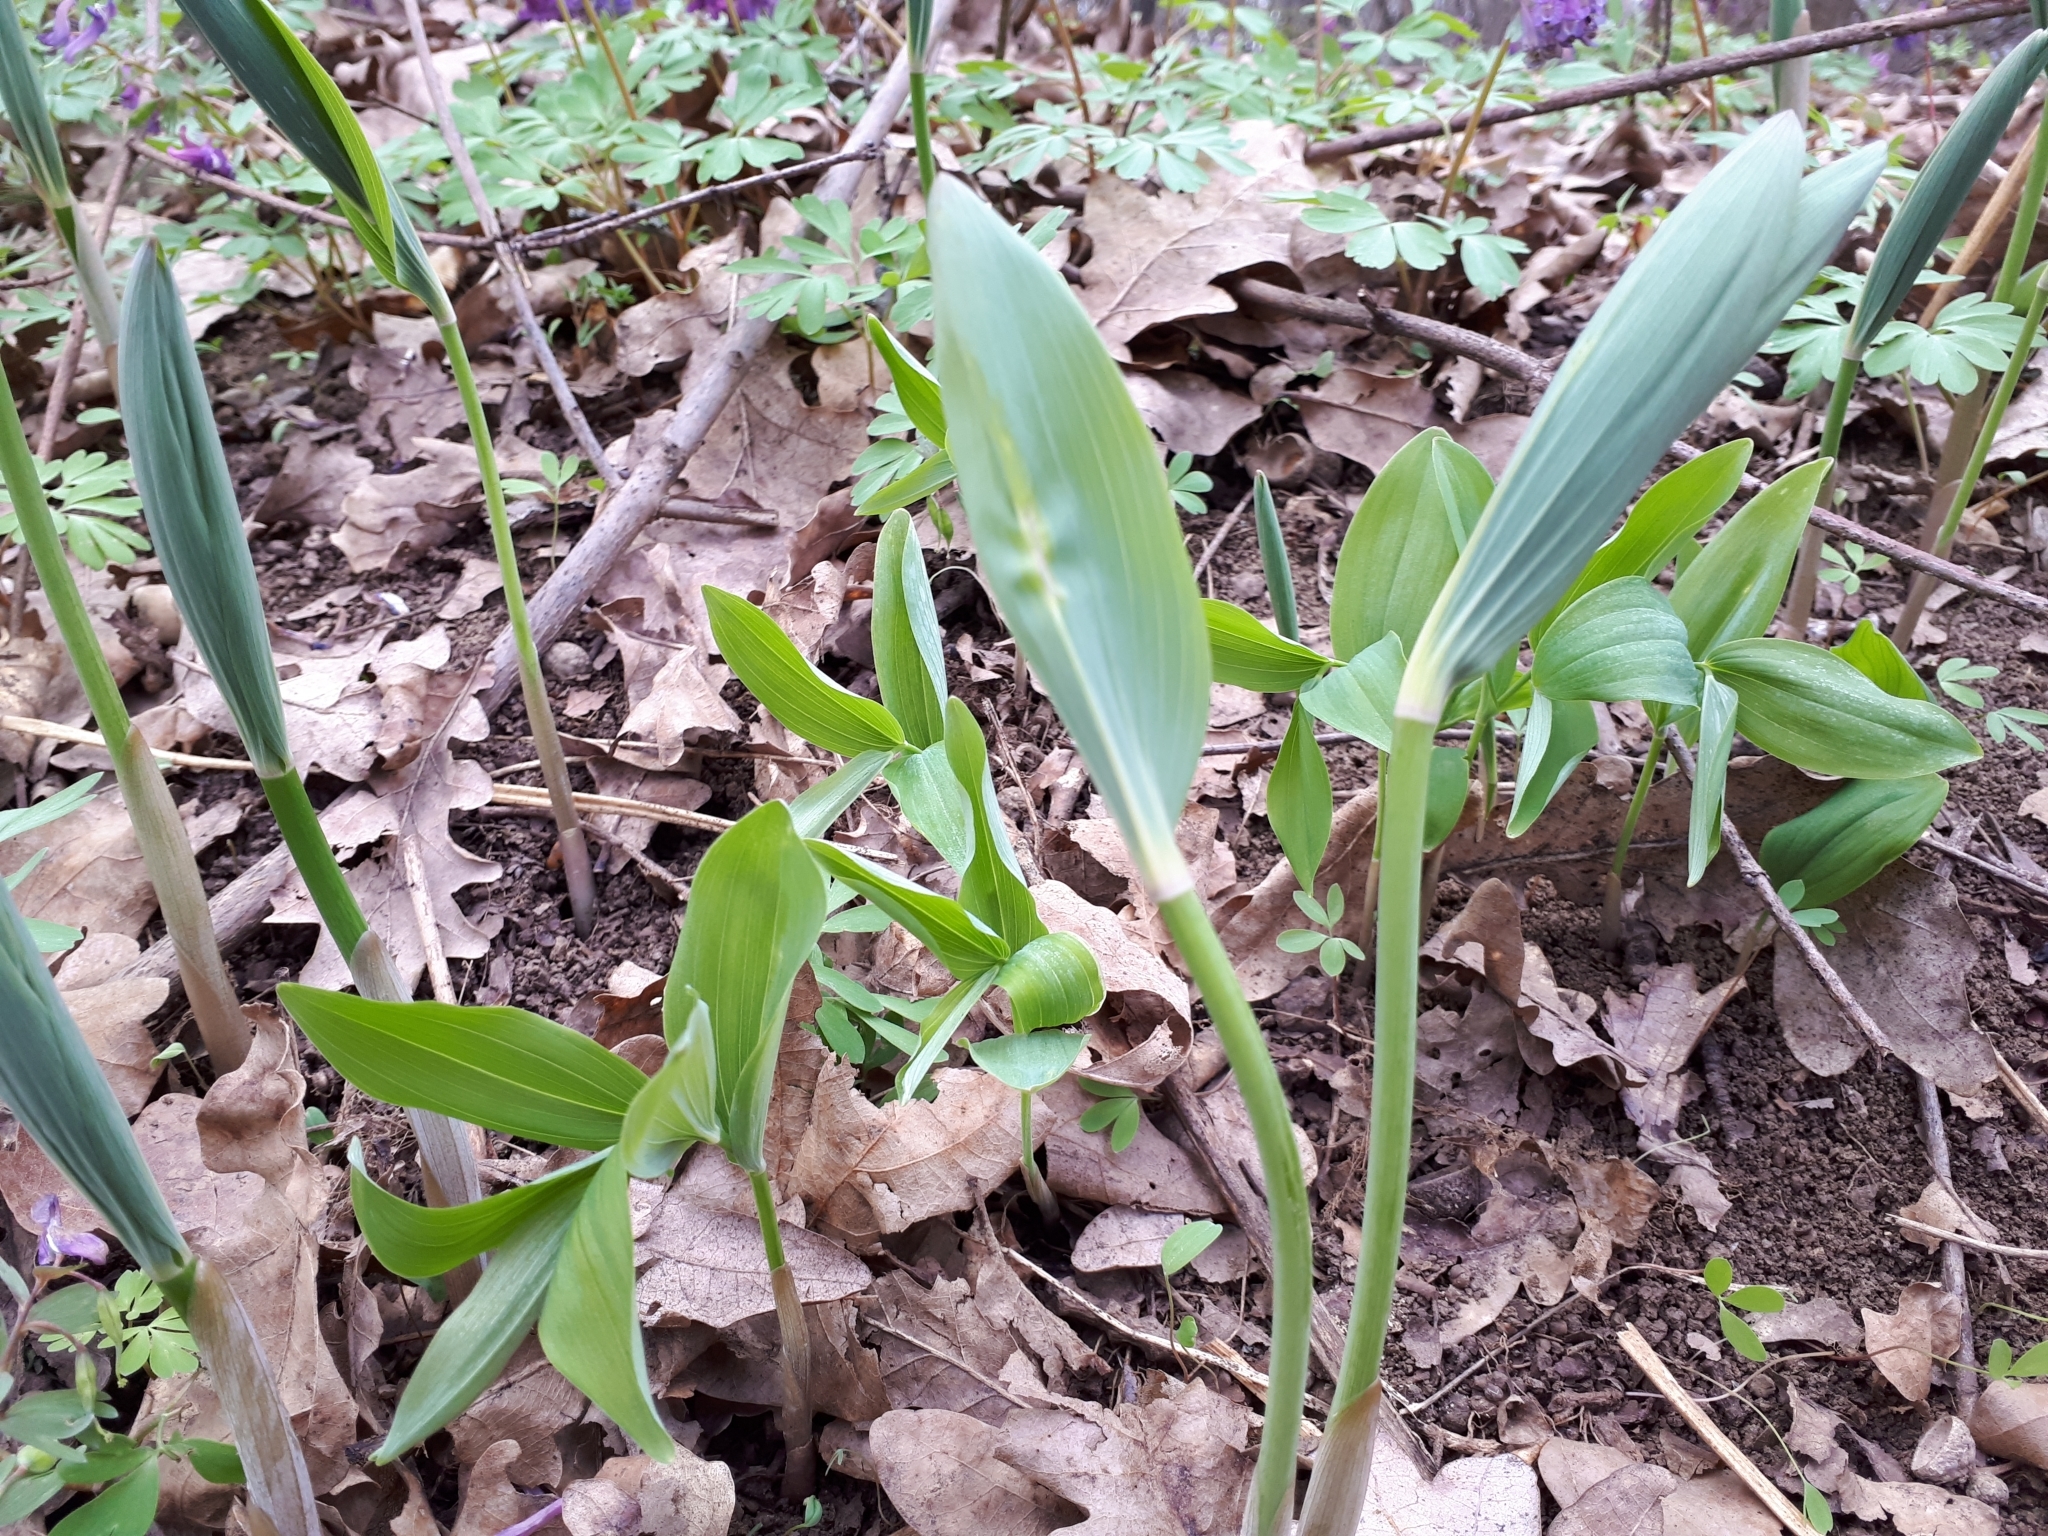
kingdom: Plantae
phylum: Tracheophyta
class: Liliopsida
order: Asparagales
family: Asparagaceae
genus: Polygonatum
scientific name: Polygonatum multiflorum
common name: Solomon's-seal
